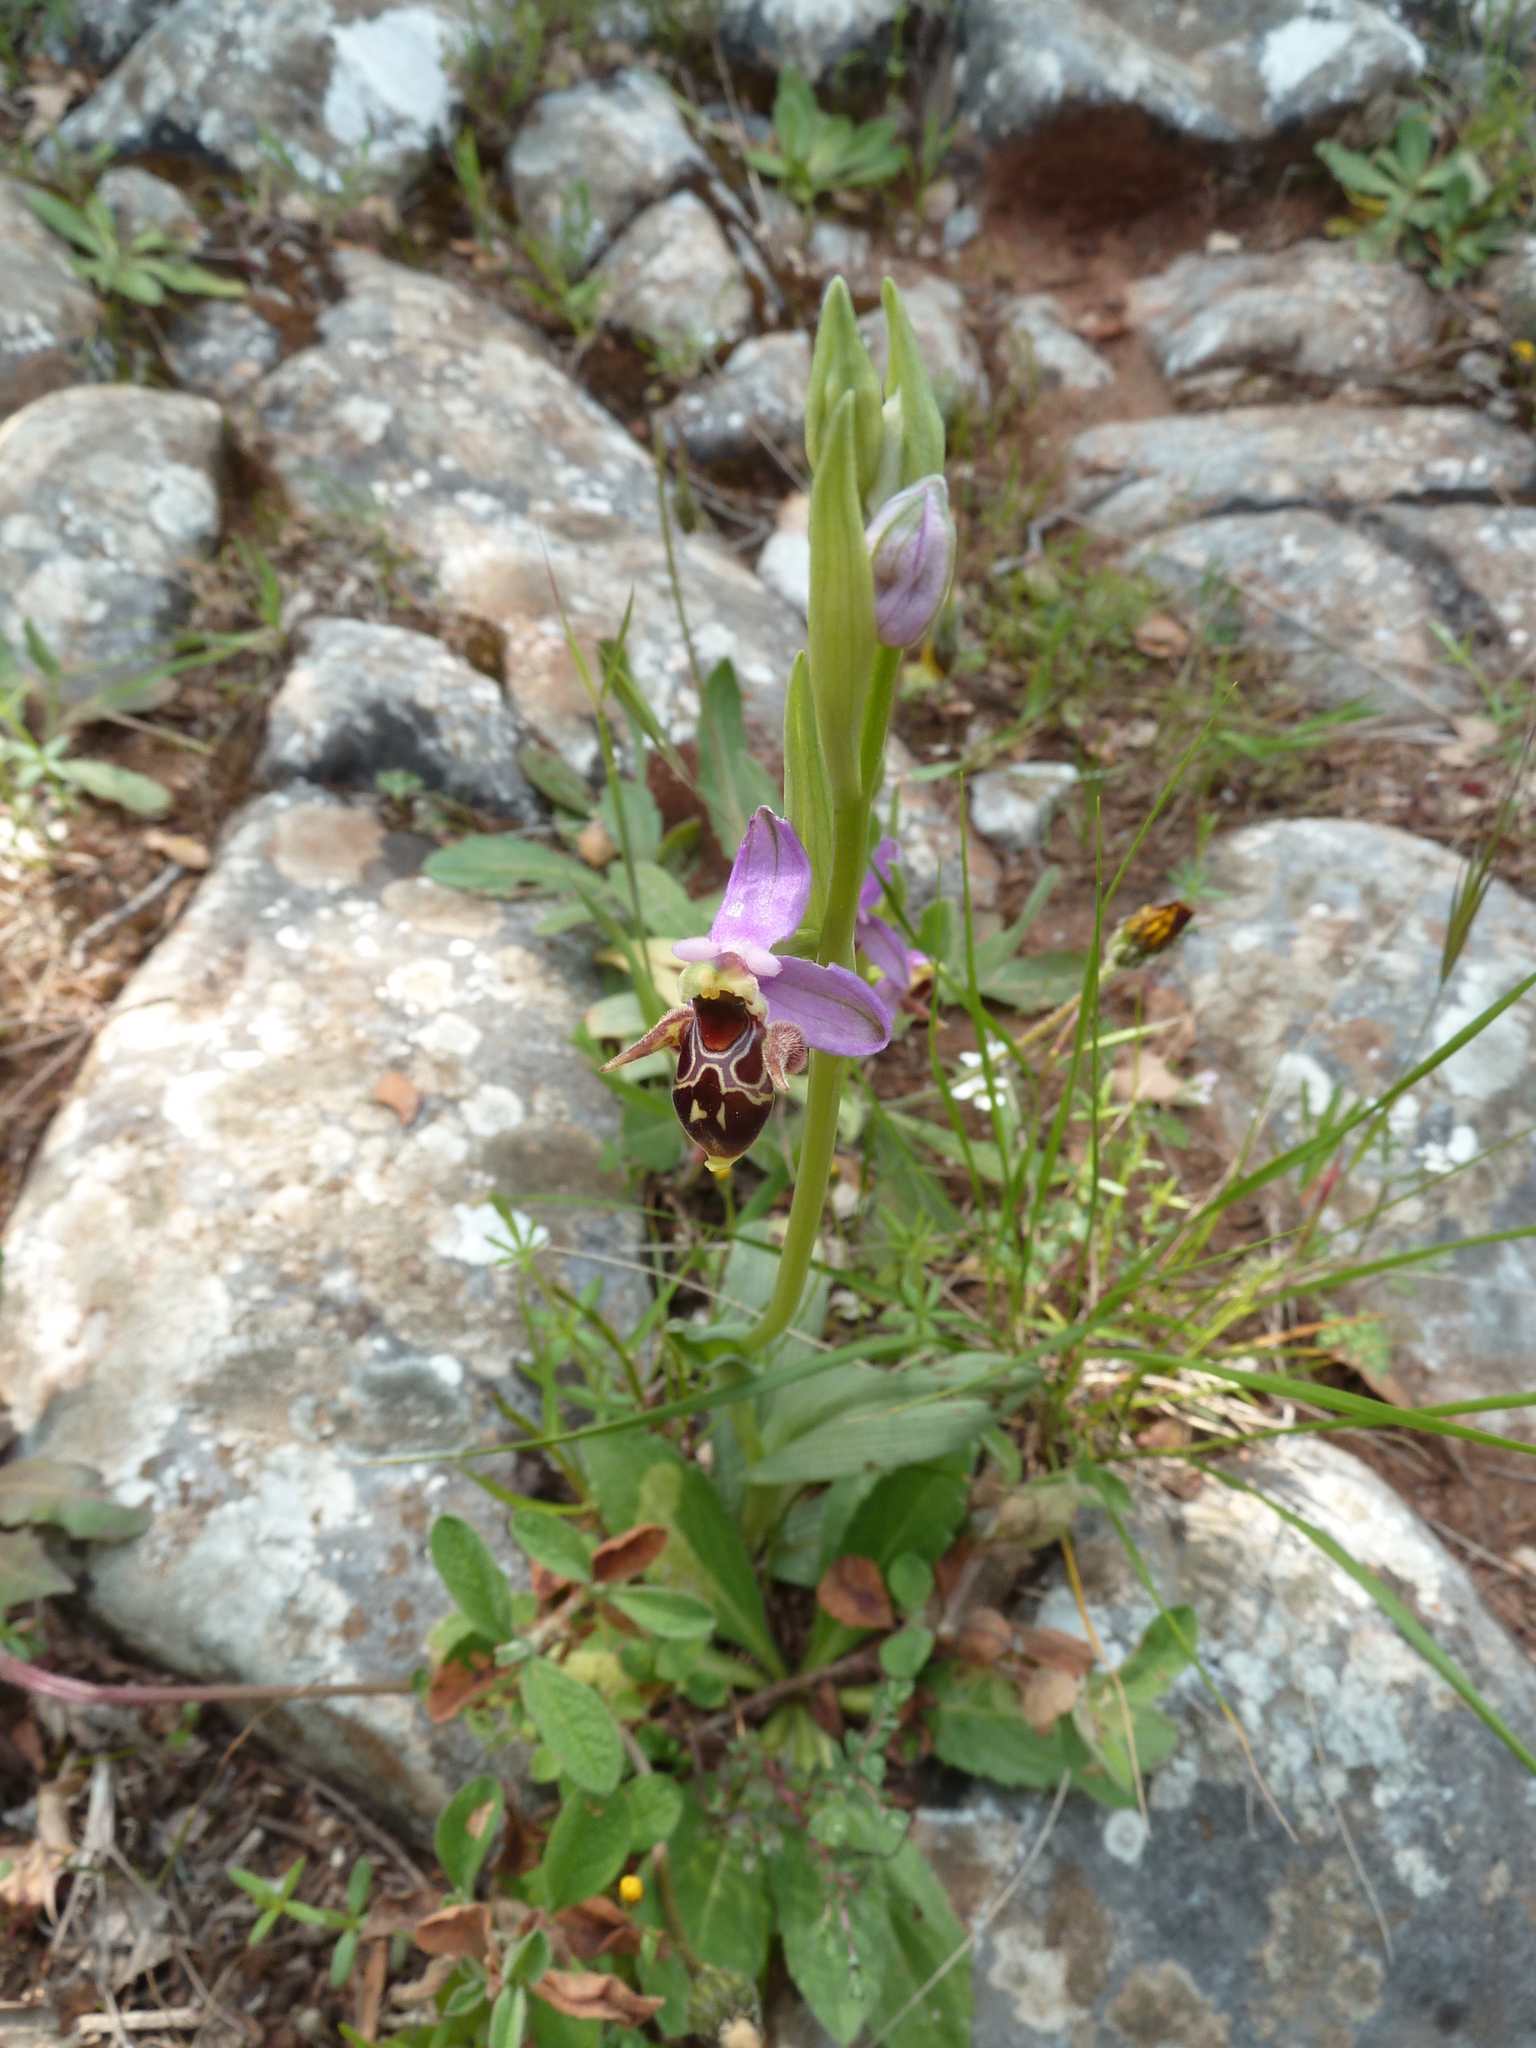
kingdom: Plantae
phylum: Tracheophyta
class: Liliopsida
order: Asparagales
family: Orchidaceae
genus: Ophrys
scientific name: Ophrys scolopax
